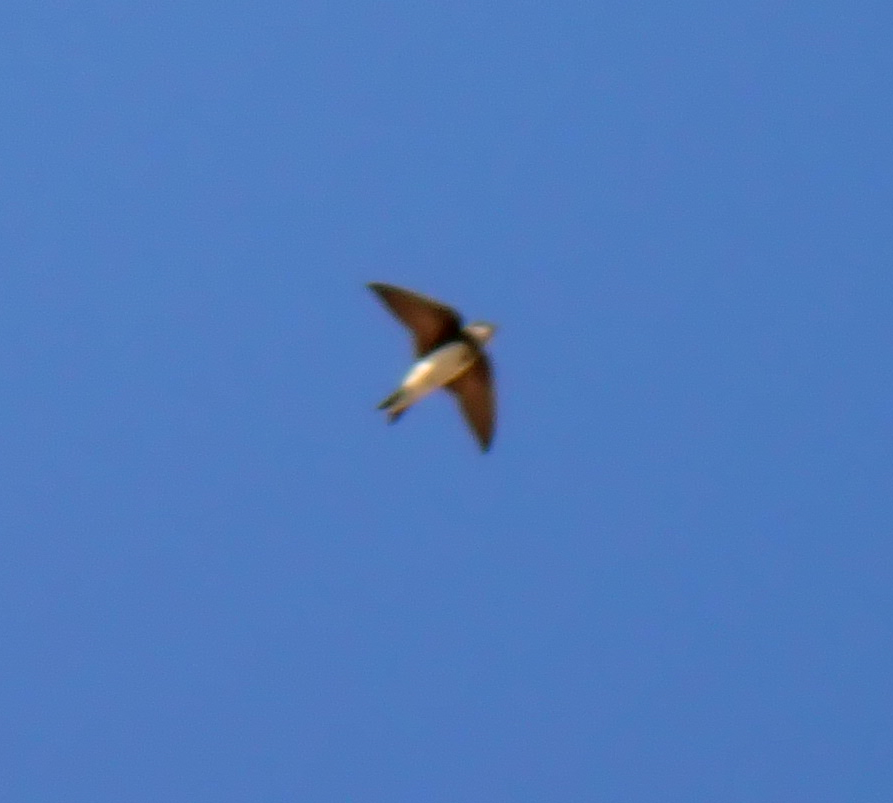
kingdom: Animalia
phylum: Chordata
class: Aves
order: Passeriformes
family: Hirundinidae
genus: Riparia
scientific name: Riparia riparia
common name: Sand martin
